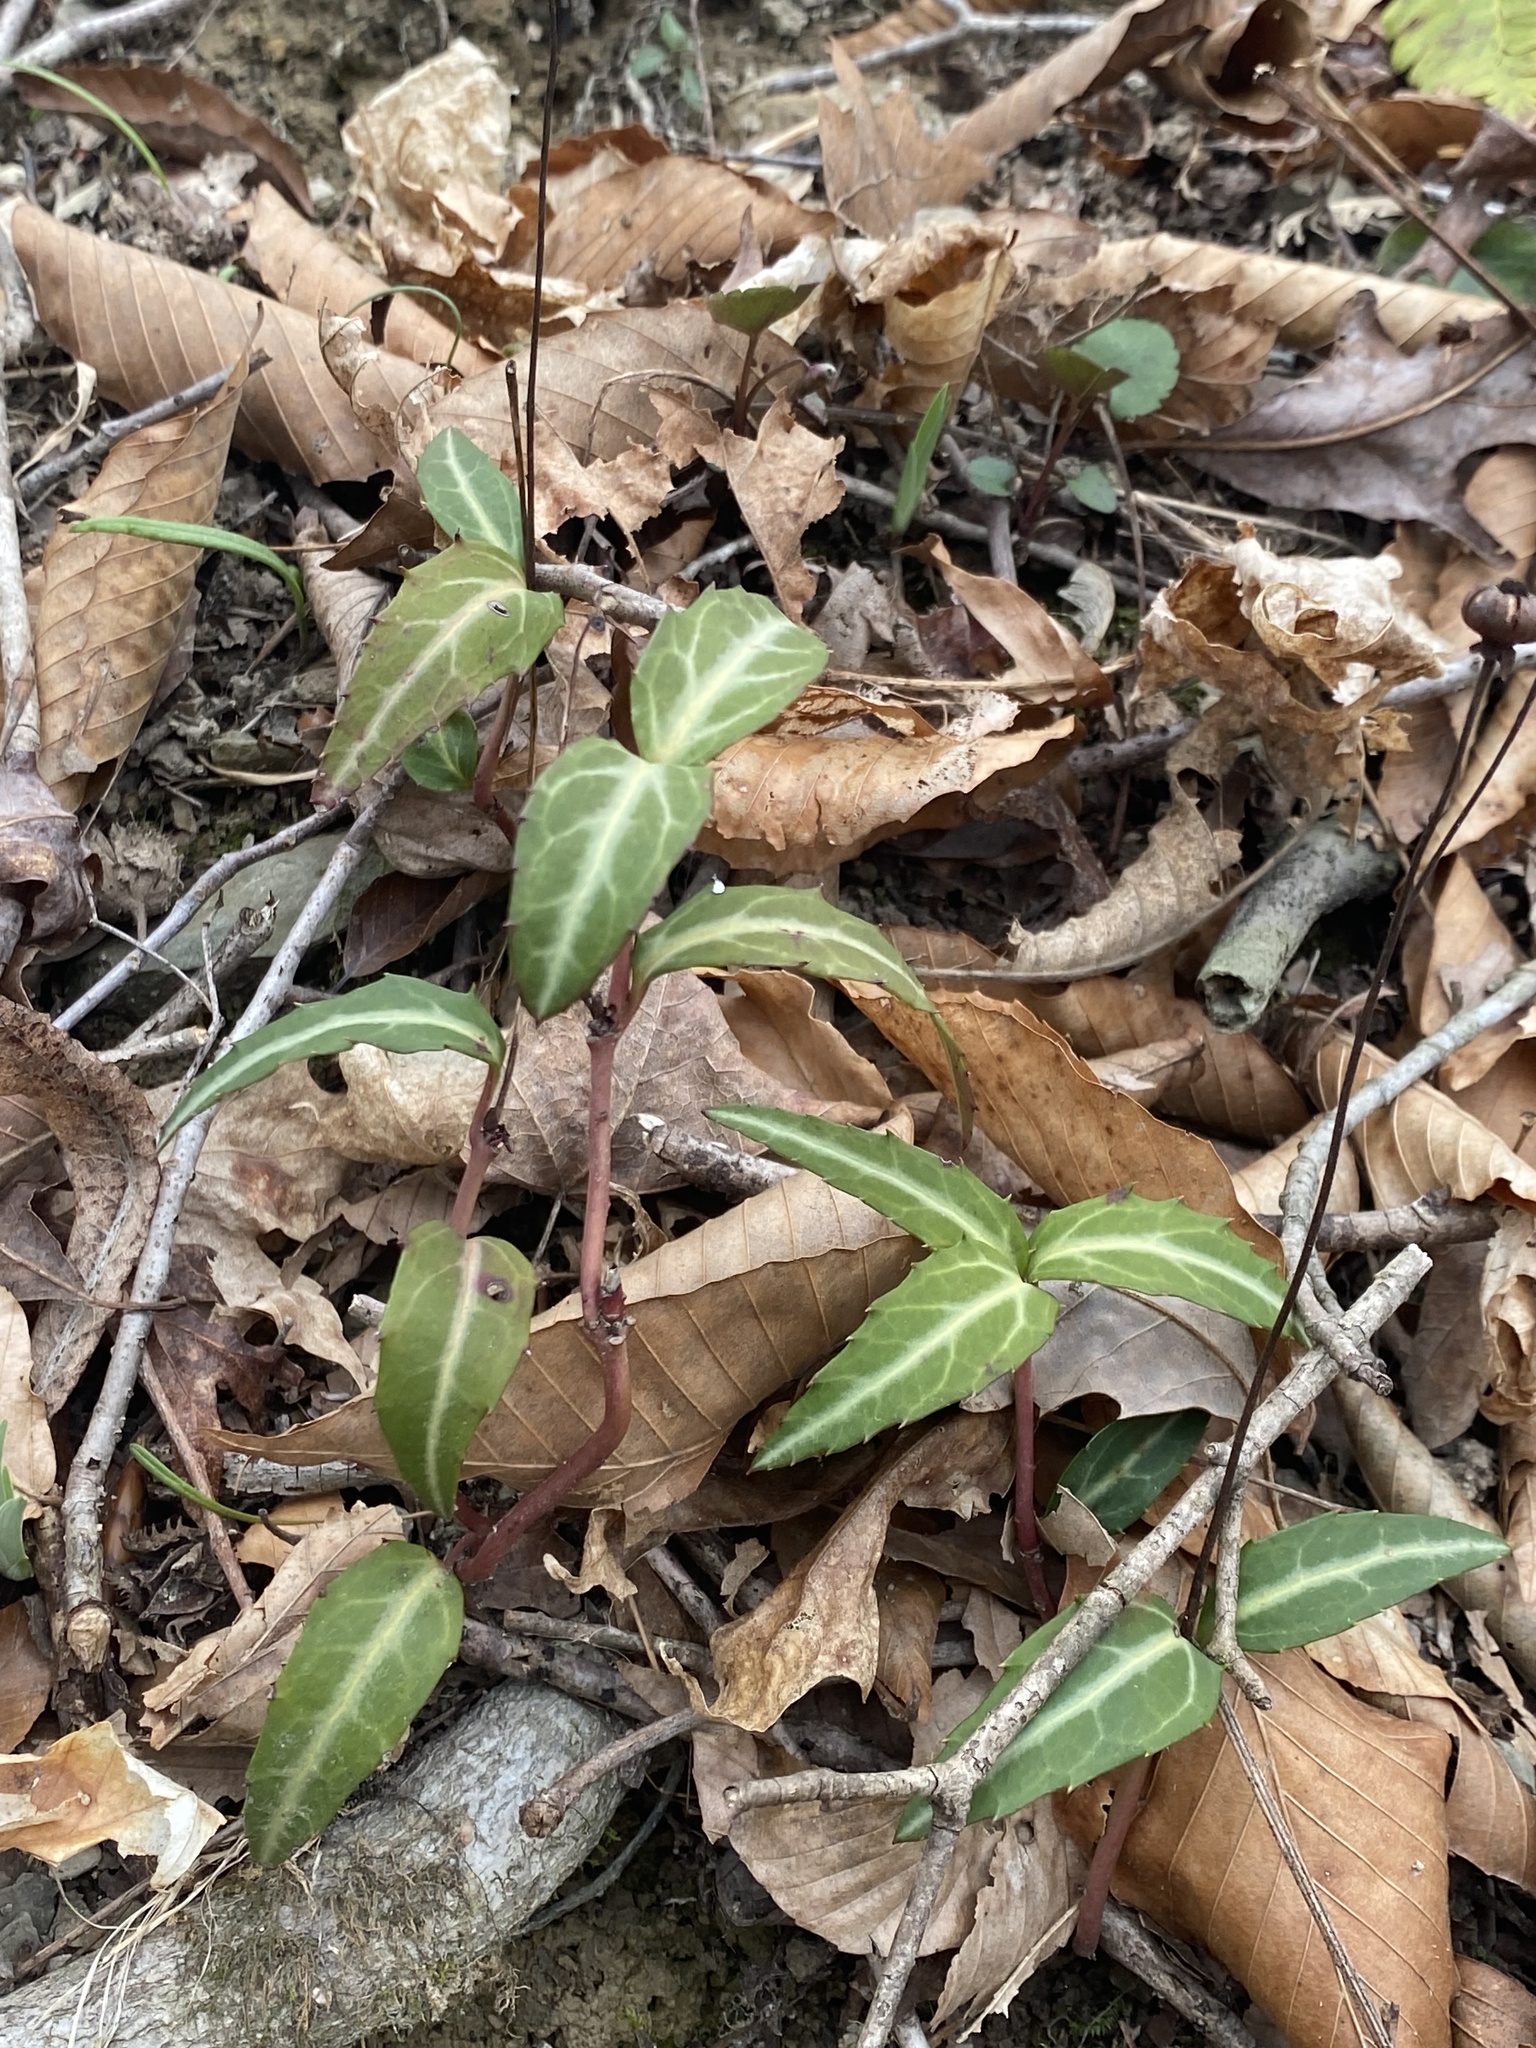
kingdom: Plantae
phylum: Tracheophyta
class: Magnoliopsida
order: Ericales
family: Ericaceae
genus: Chimaphila
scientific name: Chimaphila maculata
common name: Spotted pipsissewa
